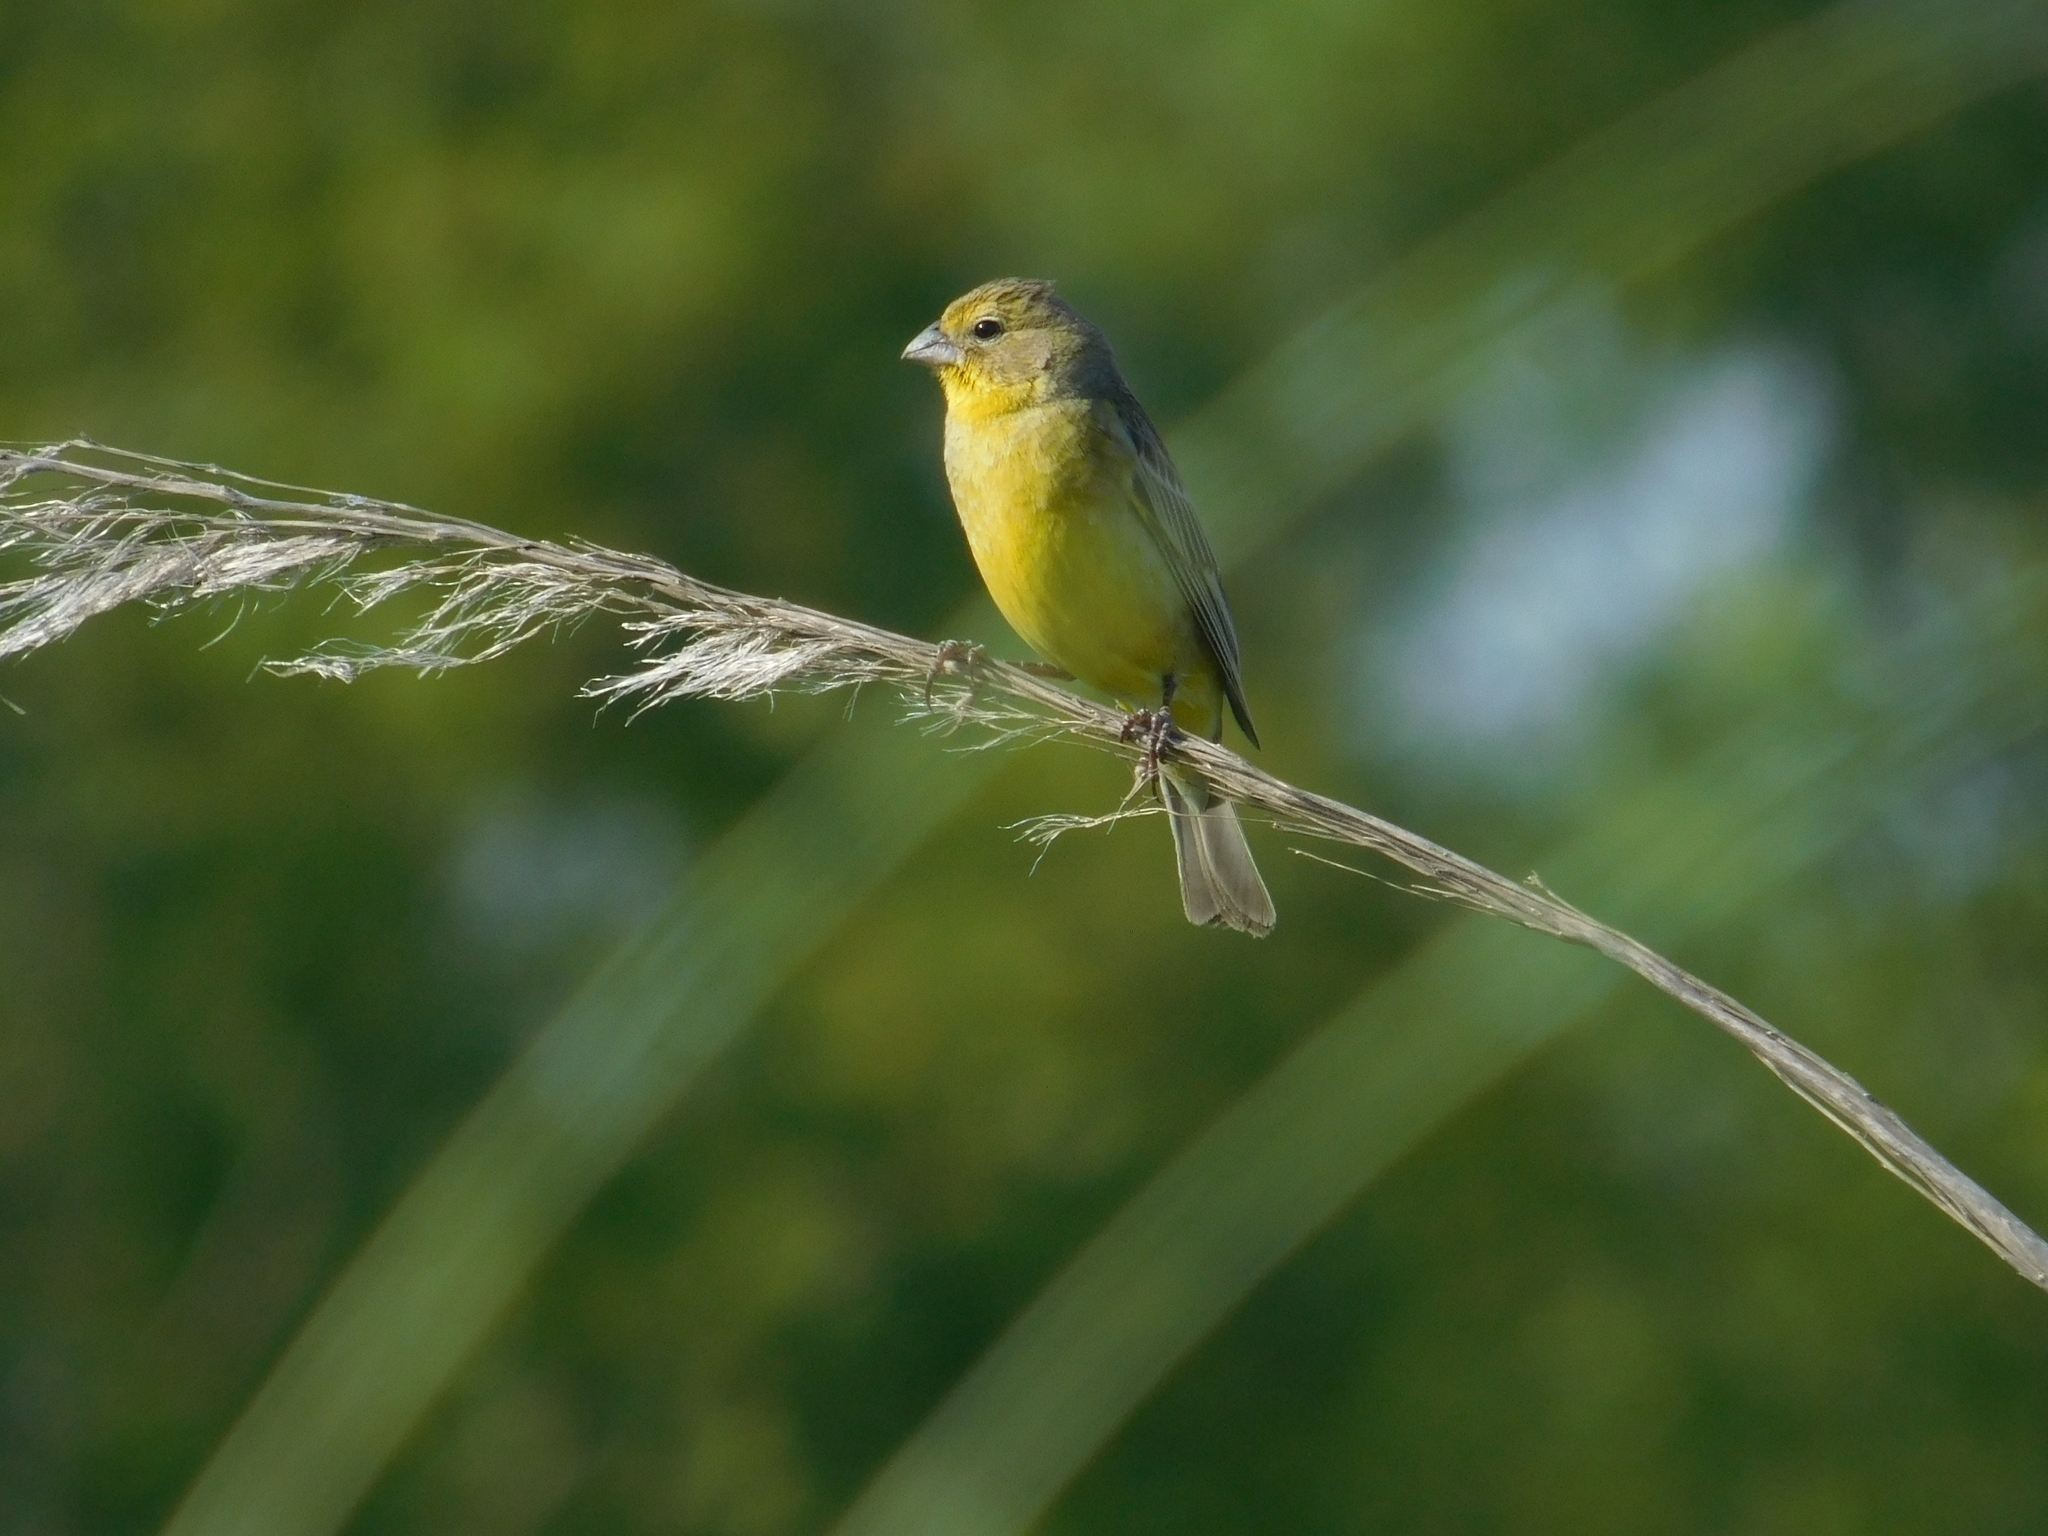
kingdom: Animalia
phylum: Chordata
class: Aves
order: Passeriformes
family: Thraupidae
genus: Sicalis
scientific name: Sicalis luteola
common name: Grassland yellow-finch
